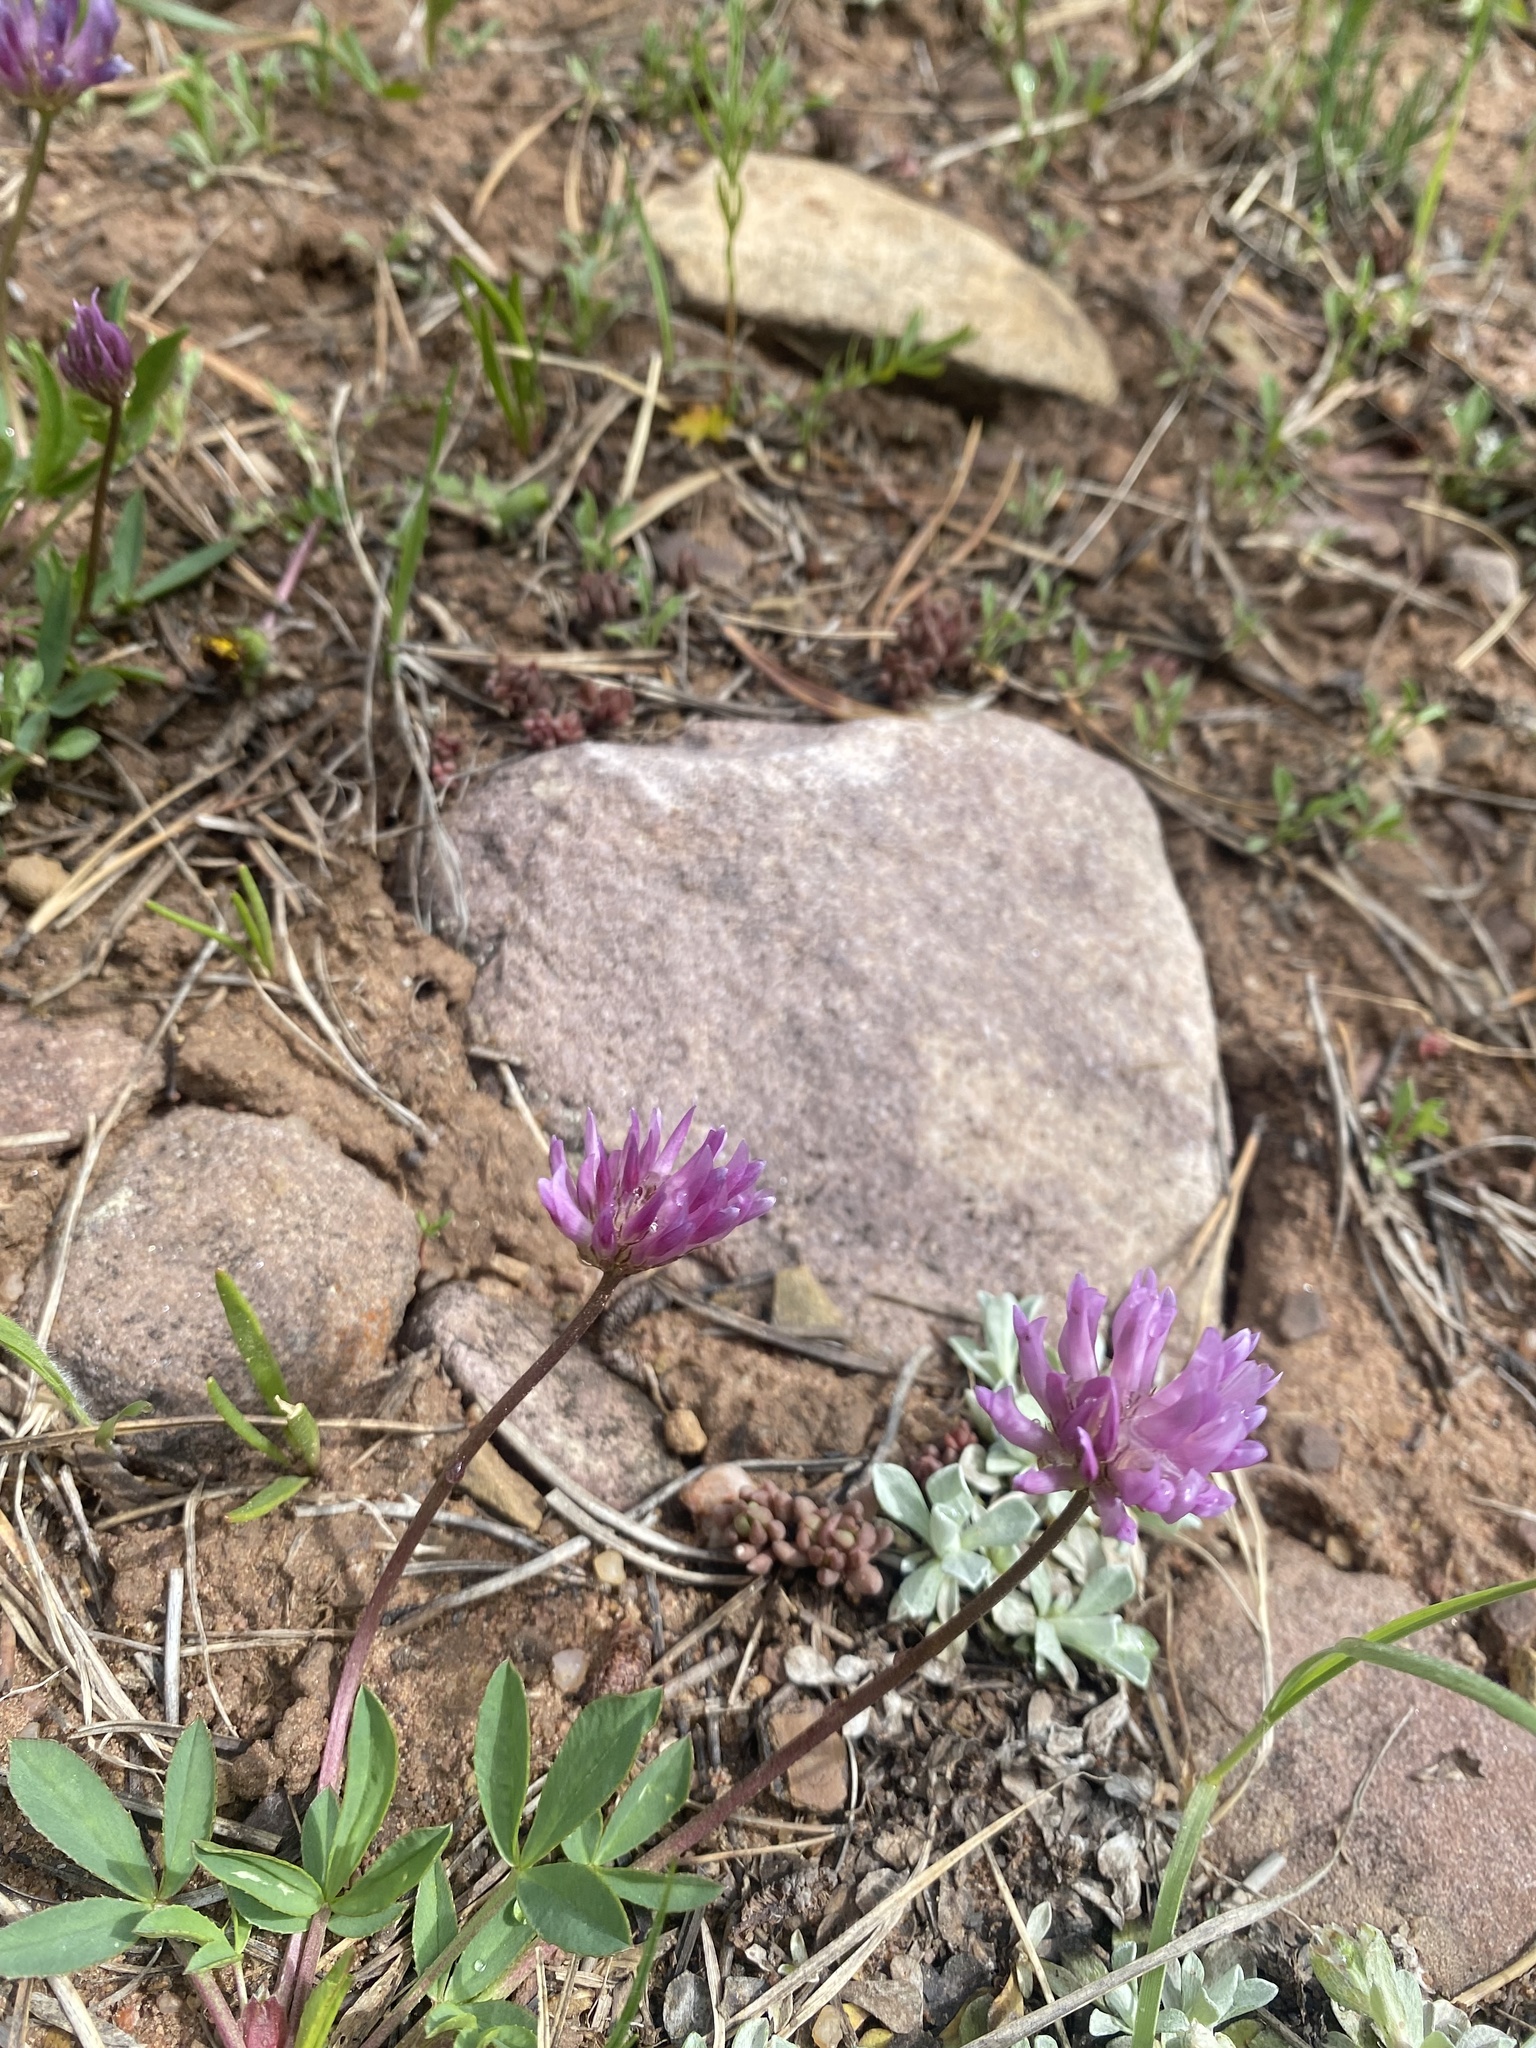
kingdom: Plantae
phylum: Tracheophyta
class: Magnoliopsida
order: Fabales
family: Fabaceae
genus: Trifolium
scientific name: Trifolium parryi
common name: Parry's clover
